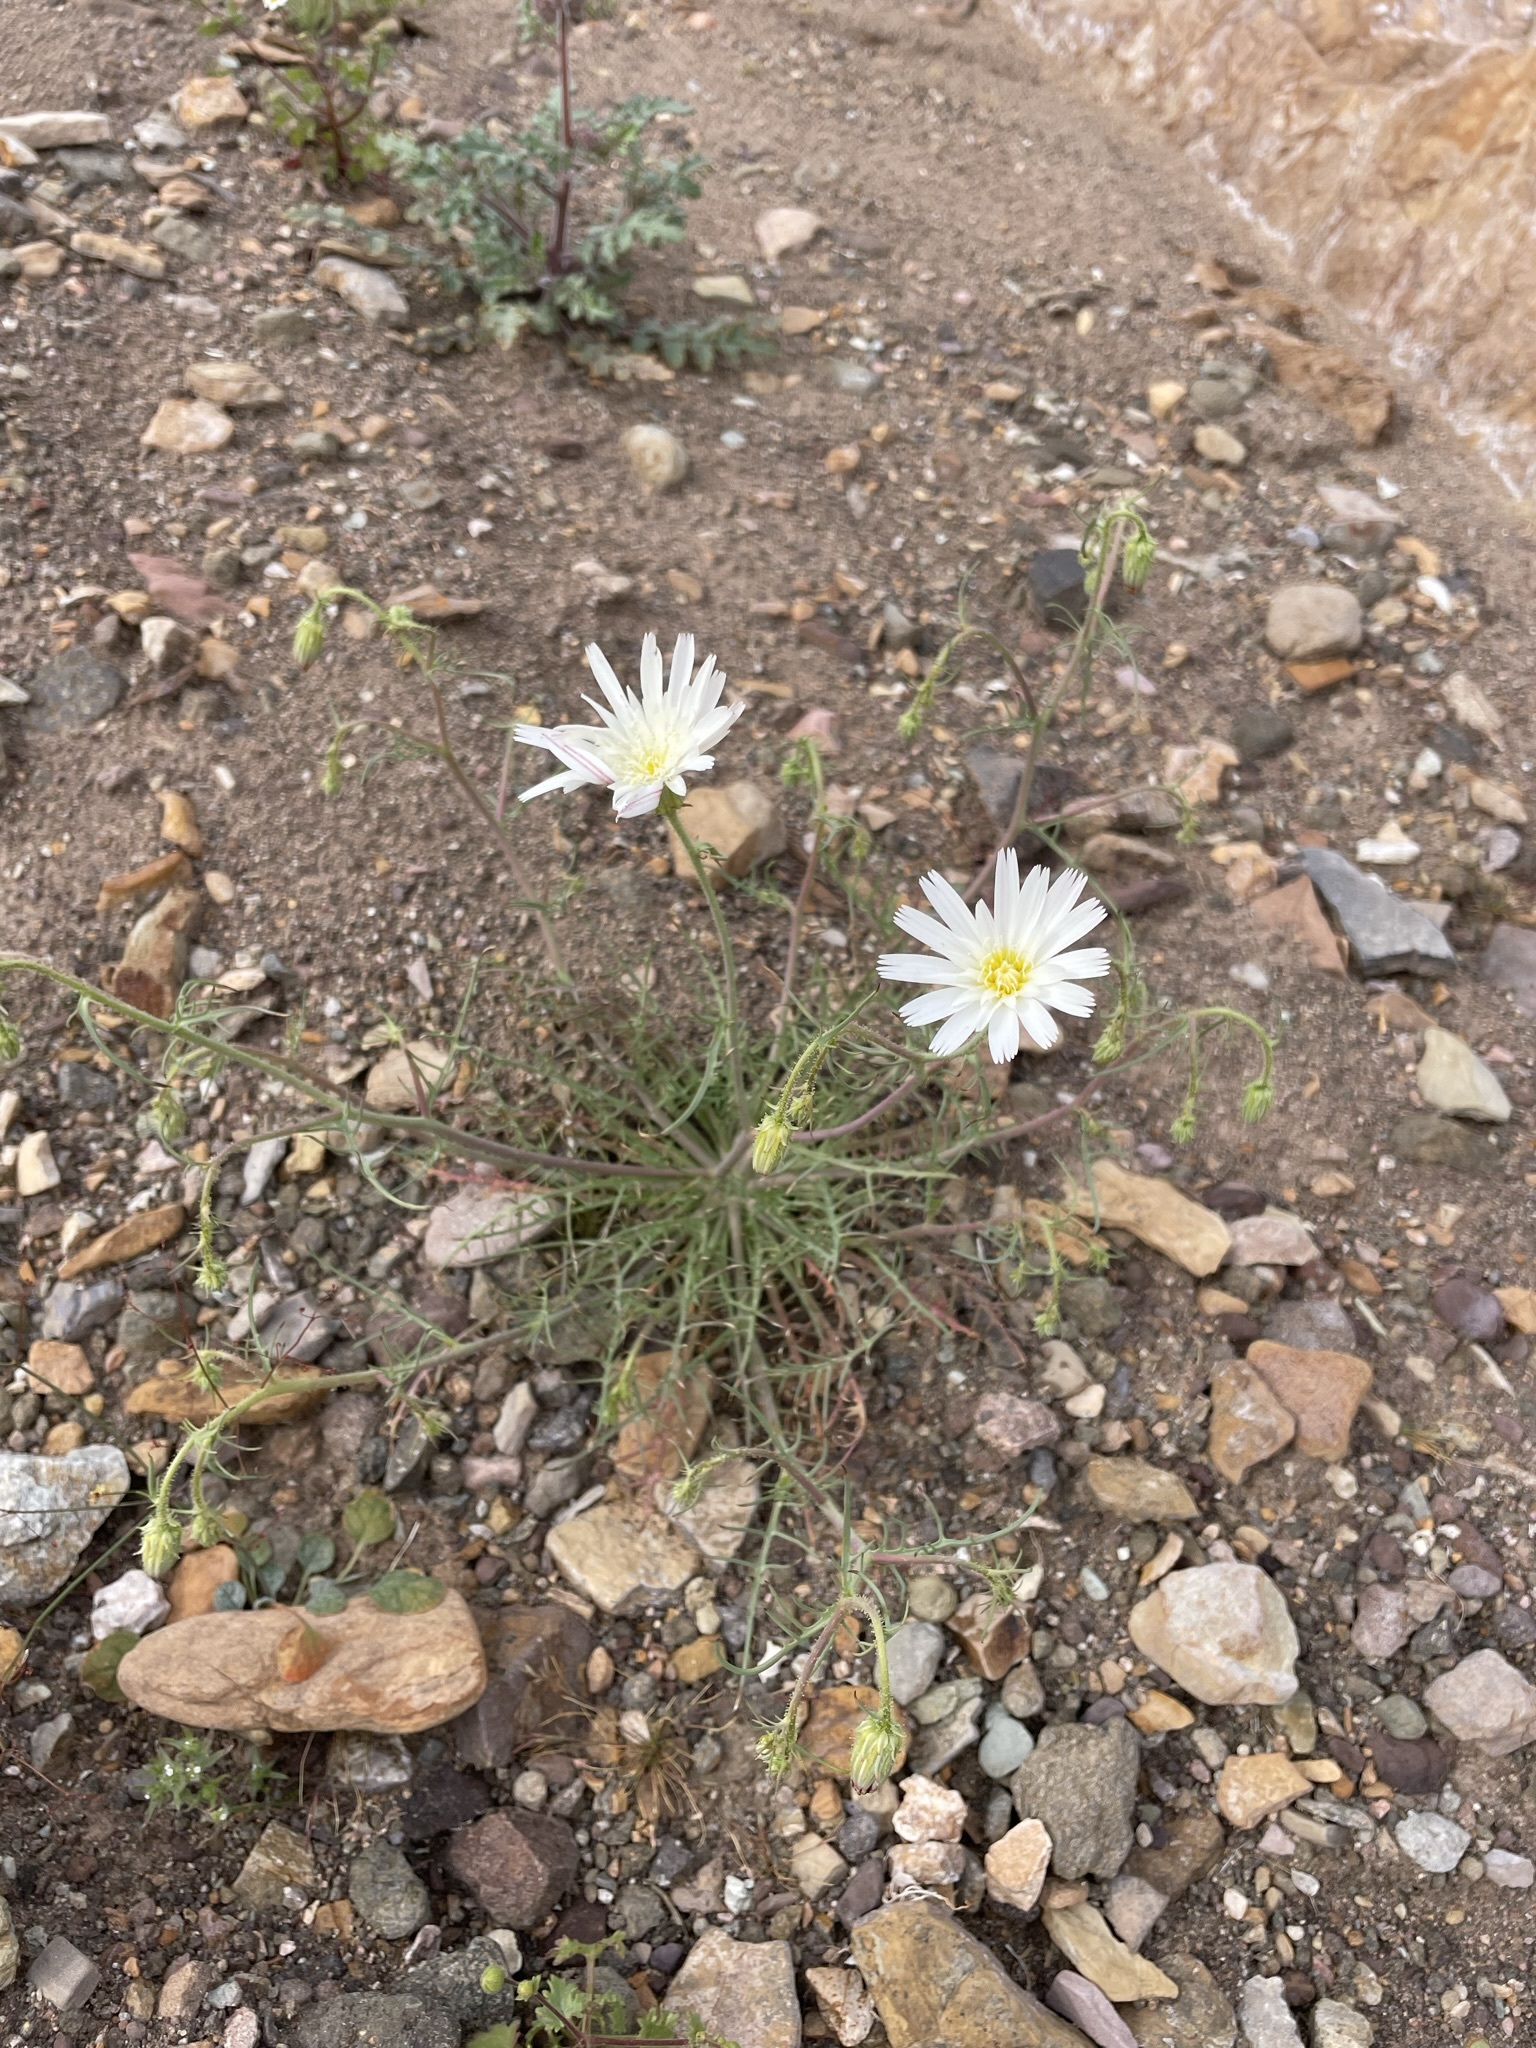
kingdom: Plantae
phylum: Tracheophyta
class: Magnoliopsida
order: Asterales
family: Asteraceae
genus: Calycoseris
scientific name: Calycoseris wrightii
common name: White tackstem
